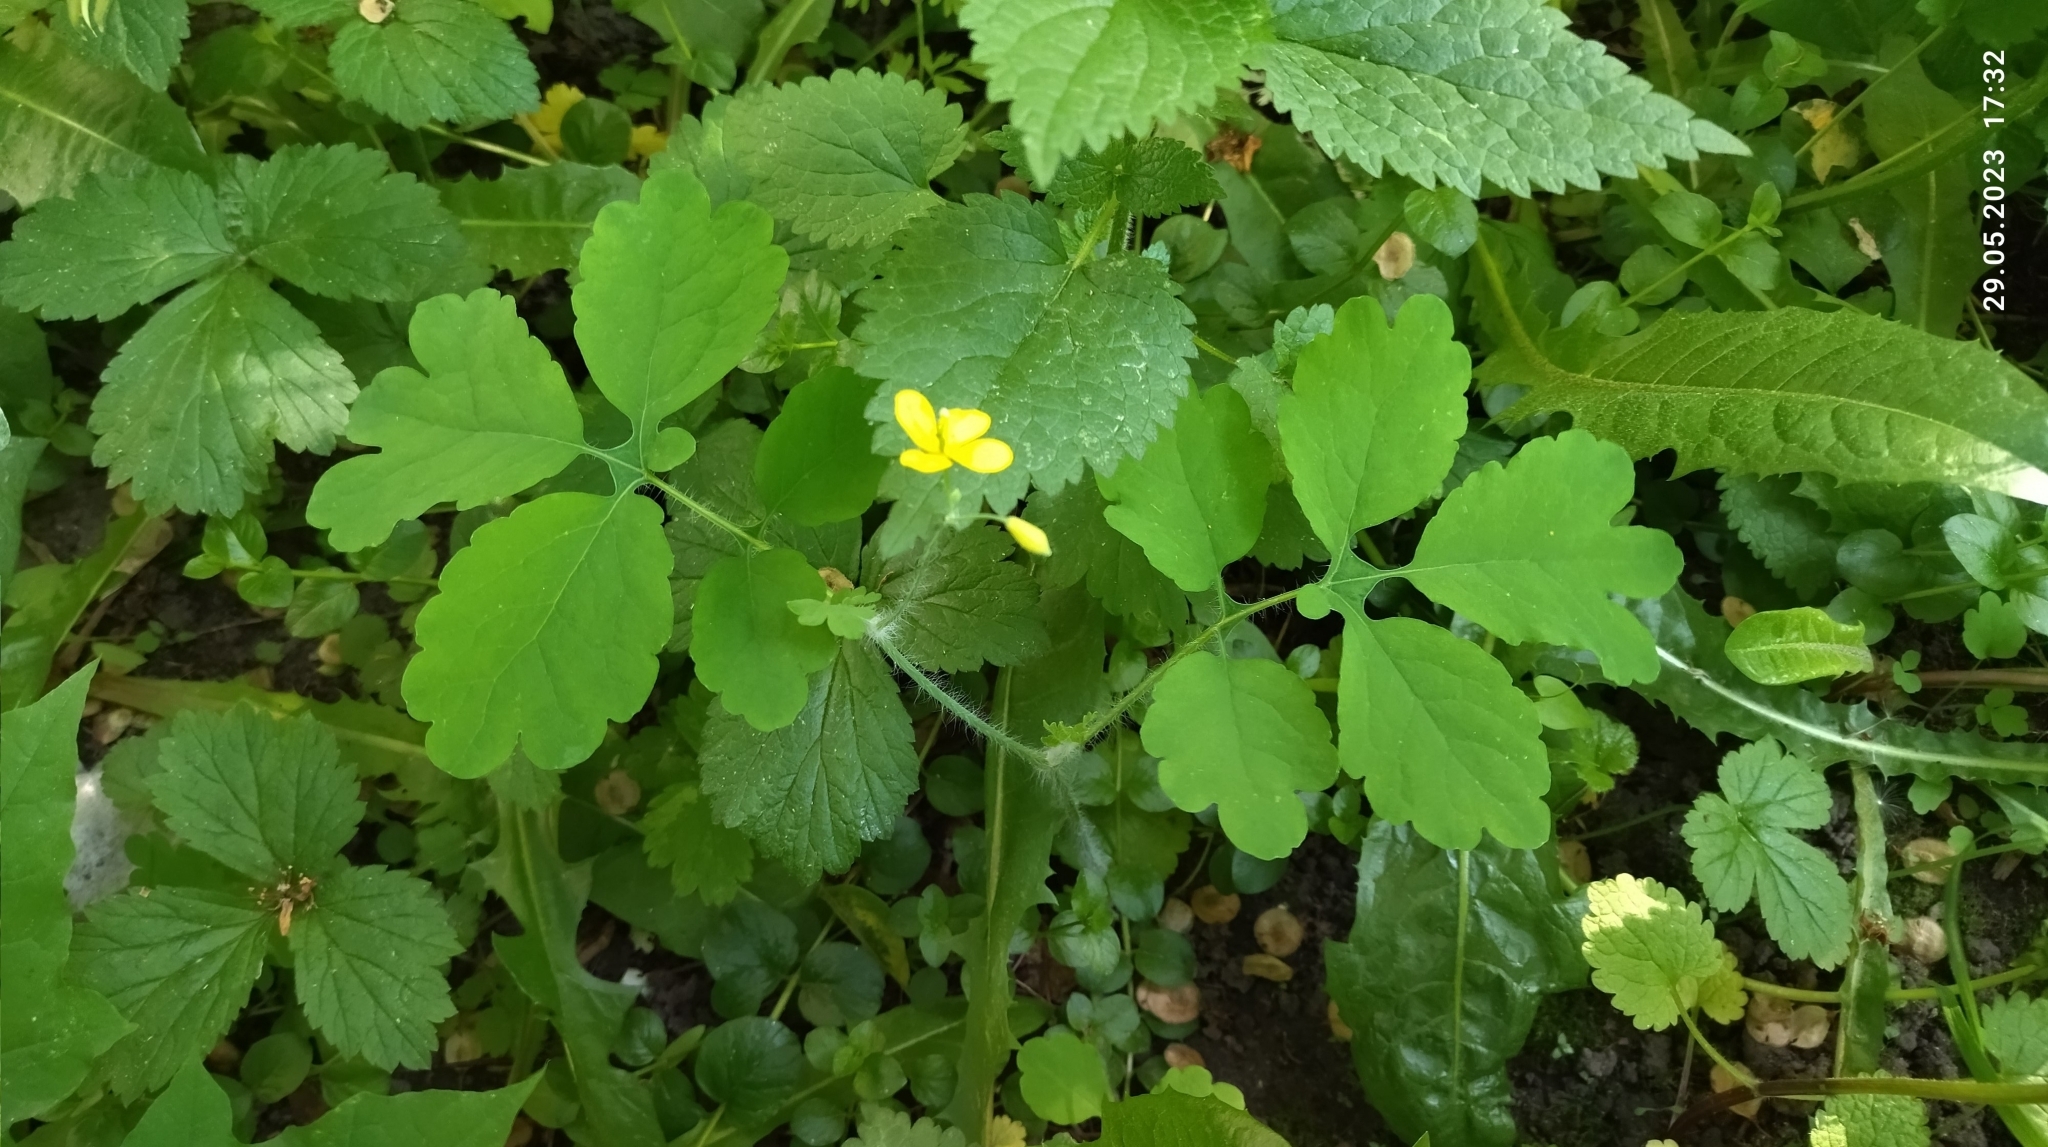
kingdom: Plantae
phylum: Tracheophyta
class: Magnoliopsida
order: Ranunculales
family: Papaveraceae
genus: Chelidonium
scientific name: Chelidonium majus
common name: Greater celandine
